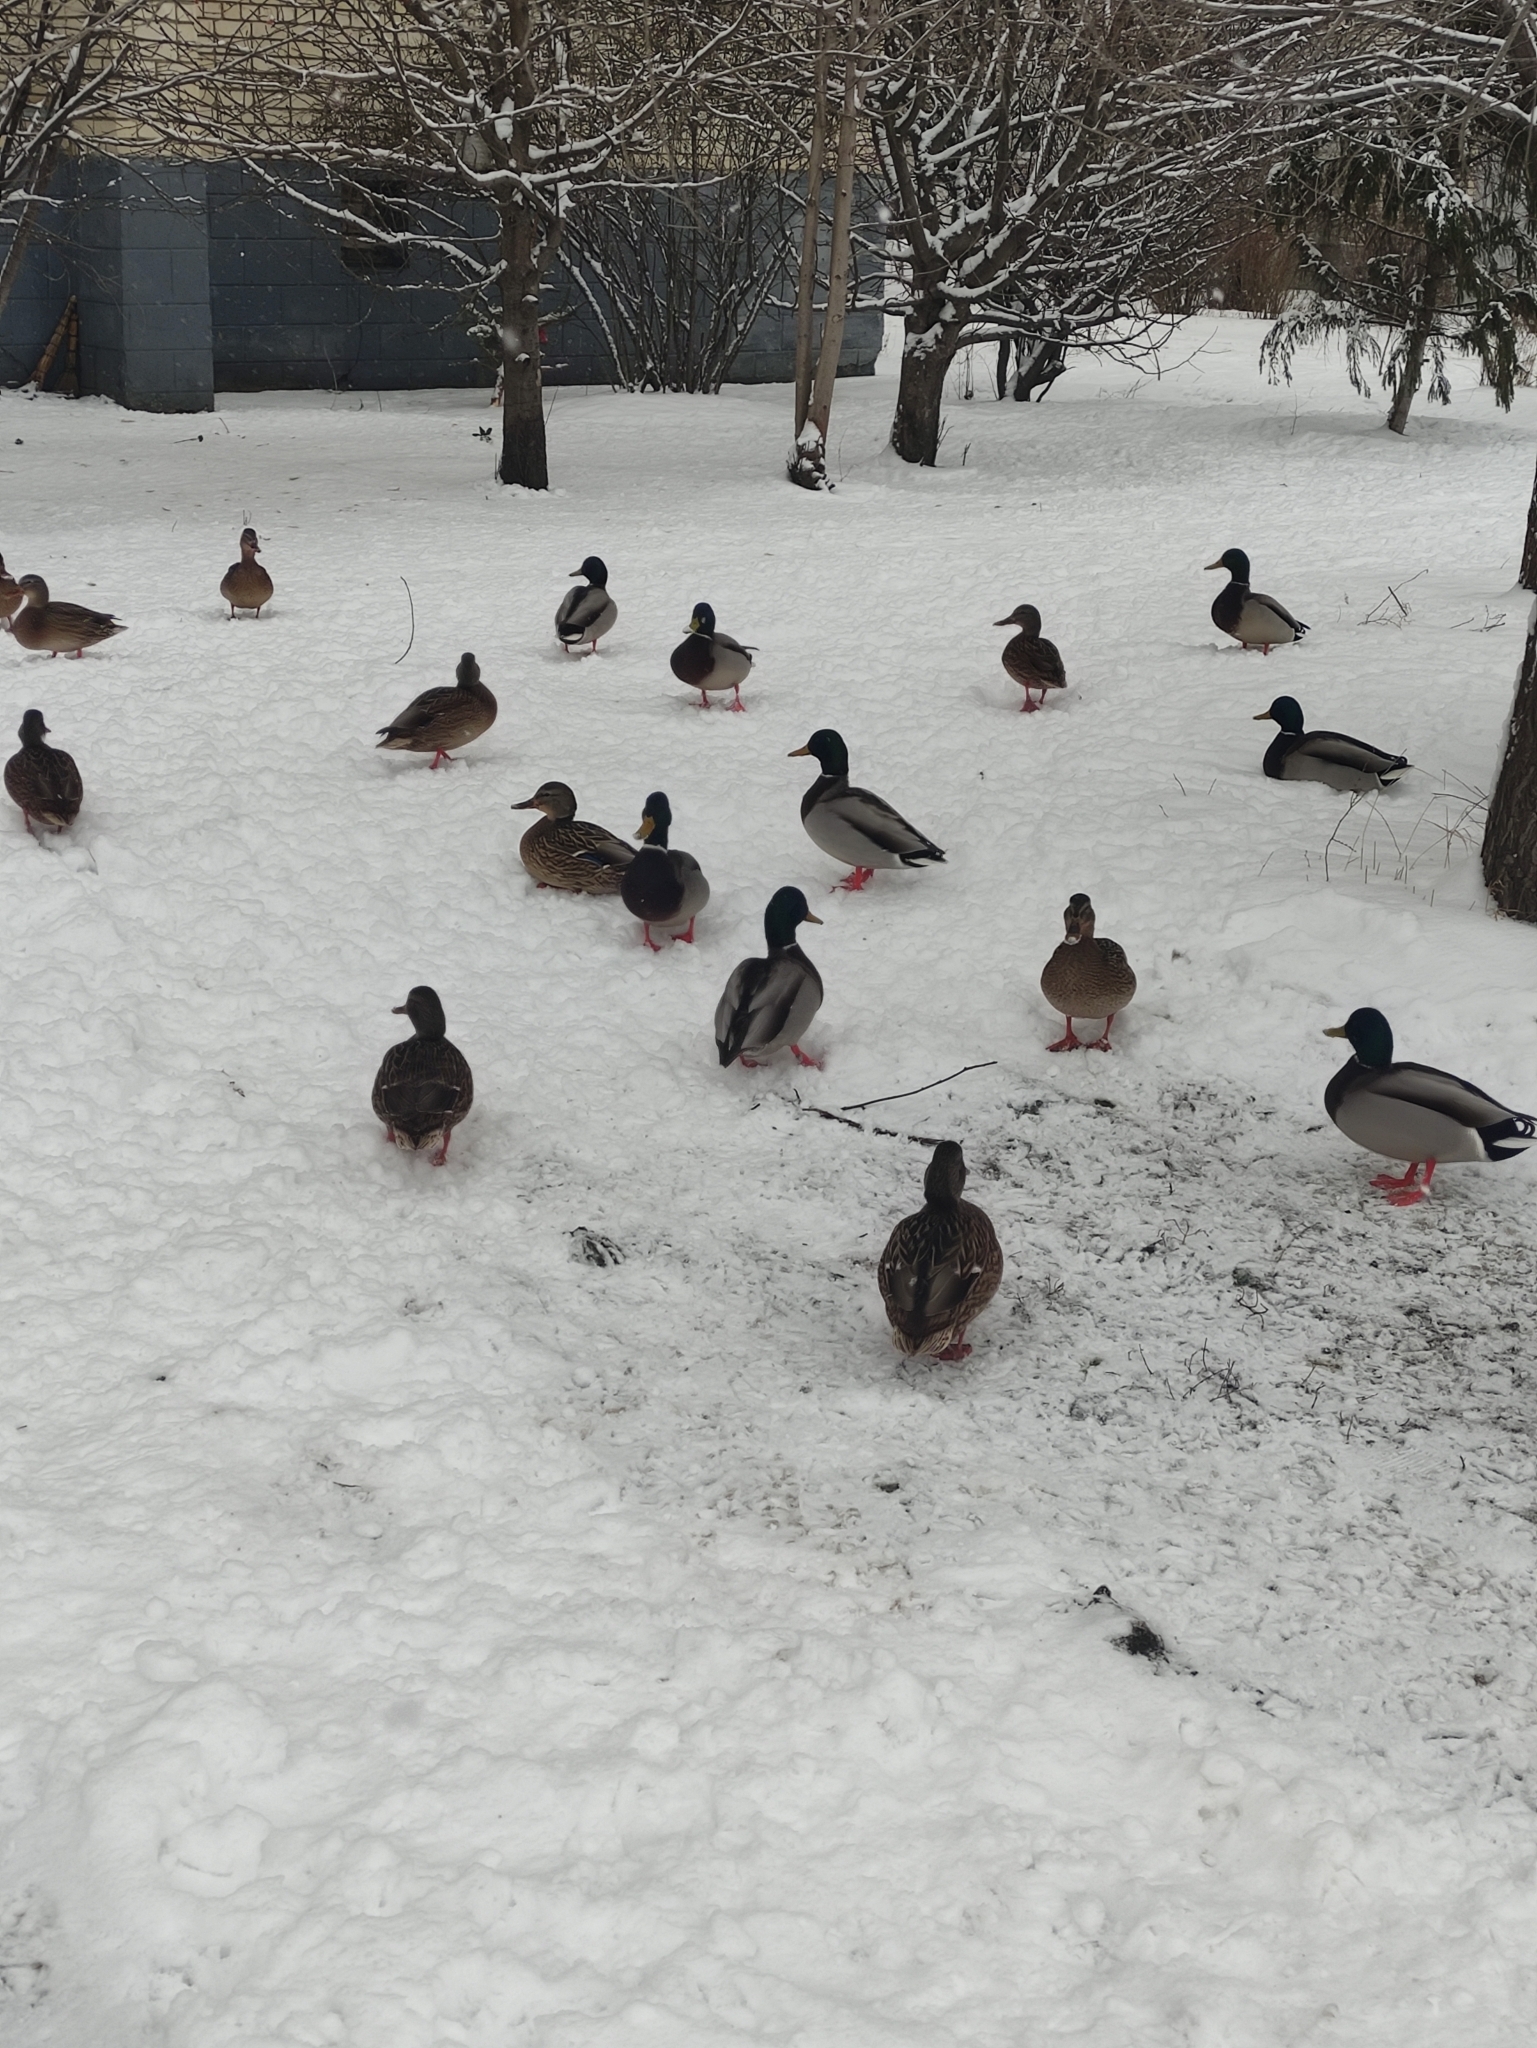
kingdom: Animalia
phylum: Chordata
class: Aves
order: Anseriformes
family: Anatidae
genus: Anas
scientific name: Anas platyrhynchos
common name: Mallard
